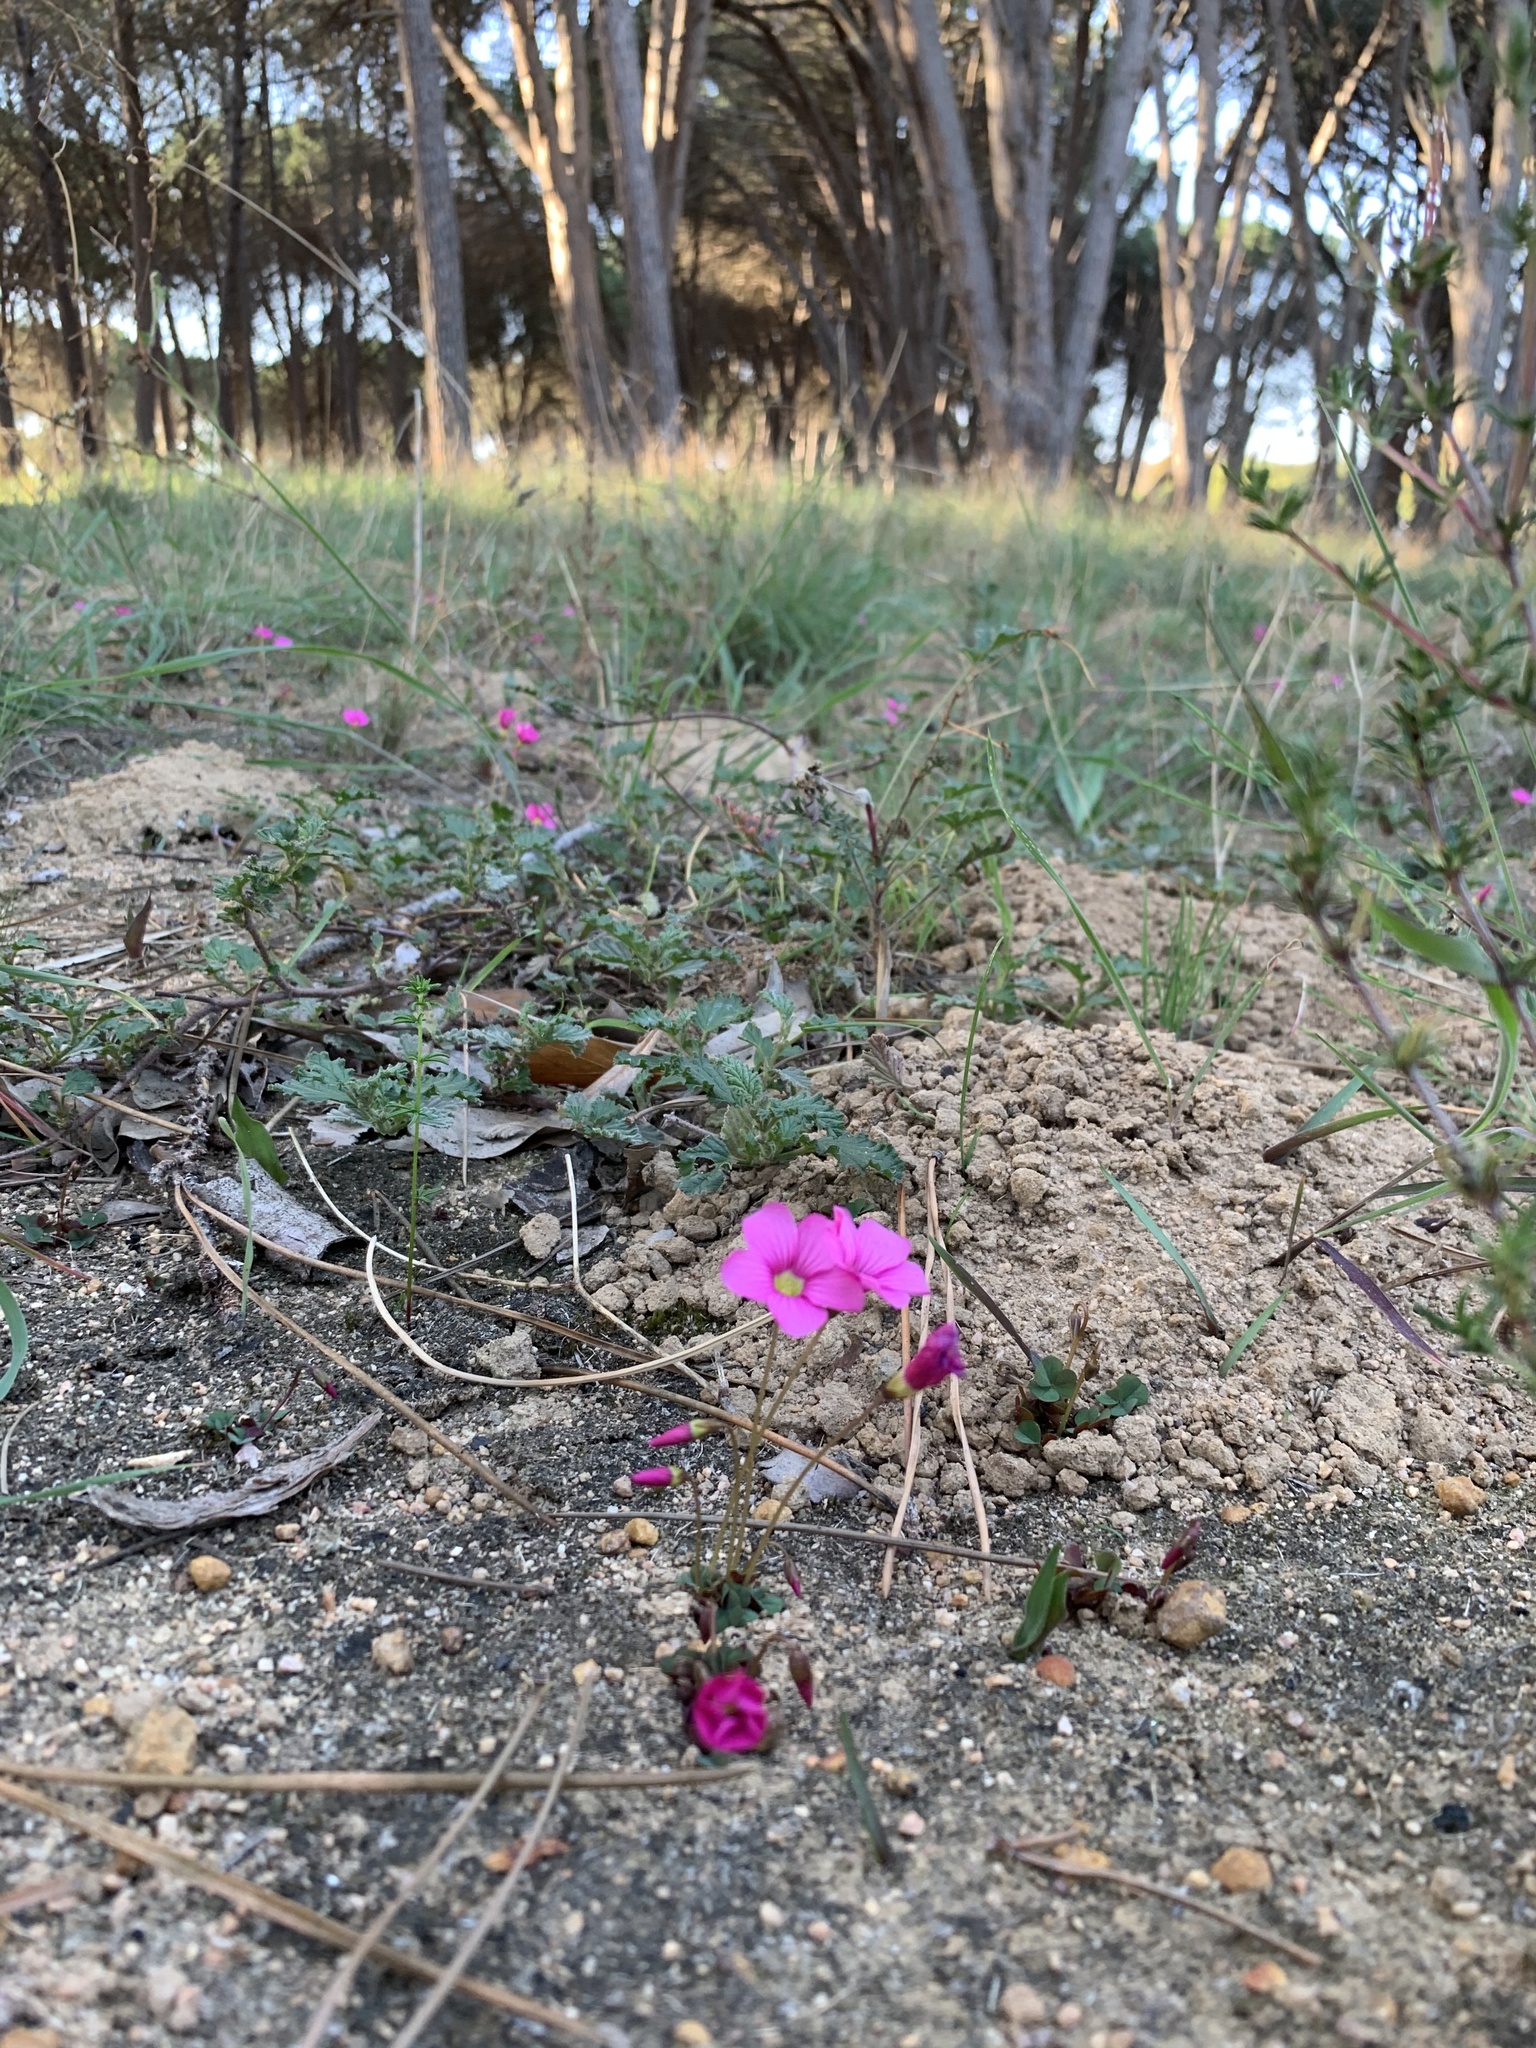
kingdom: Plantae
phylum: Tracheophyta
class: Magnoliopsida
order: Oxalidales
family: Oxalidaceae
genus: Oxalis
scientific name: Oxalis commutata
